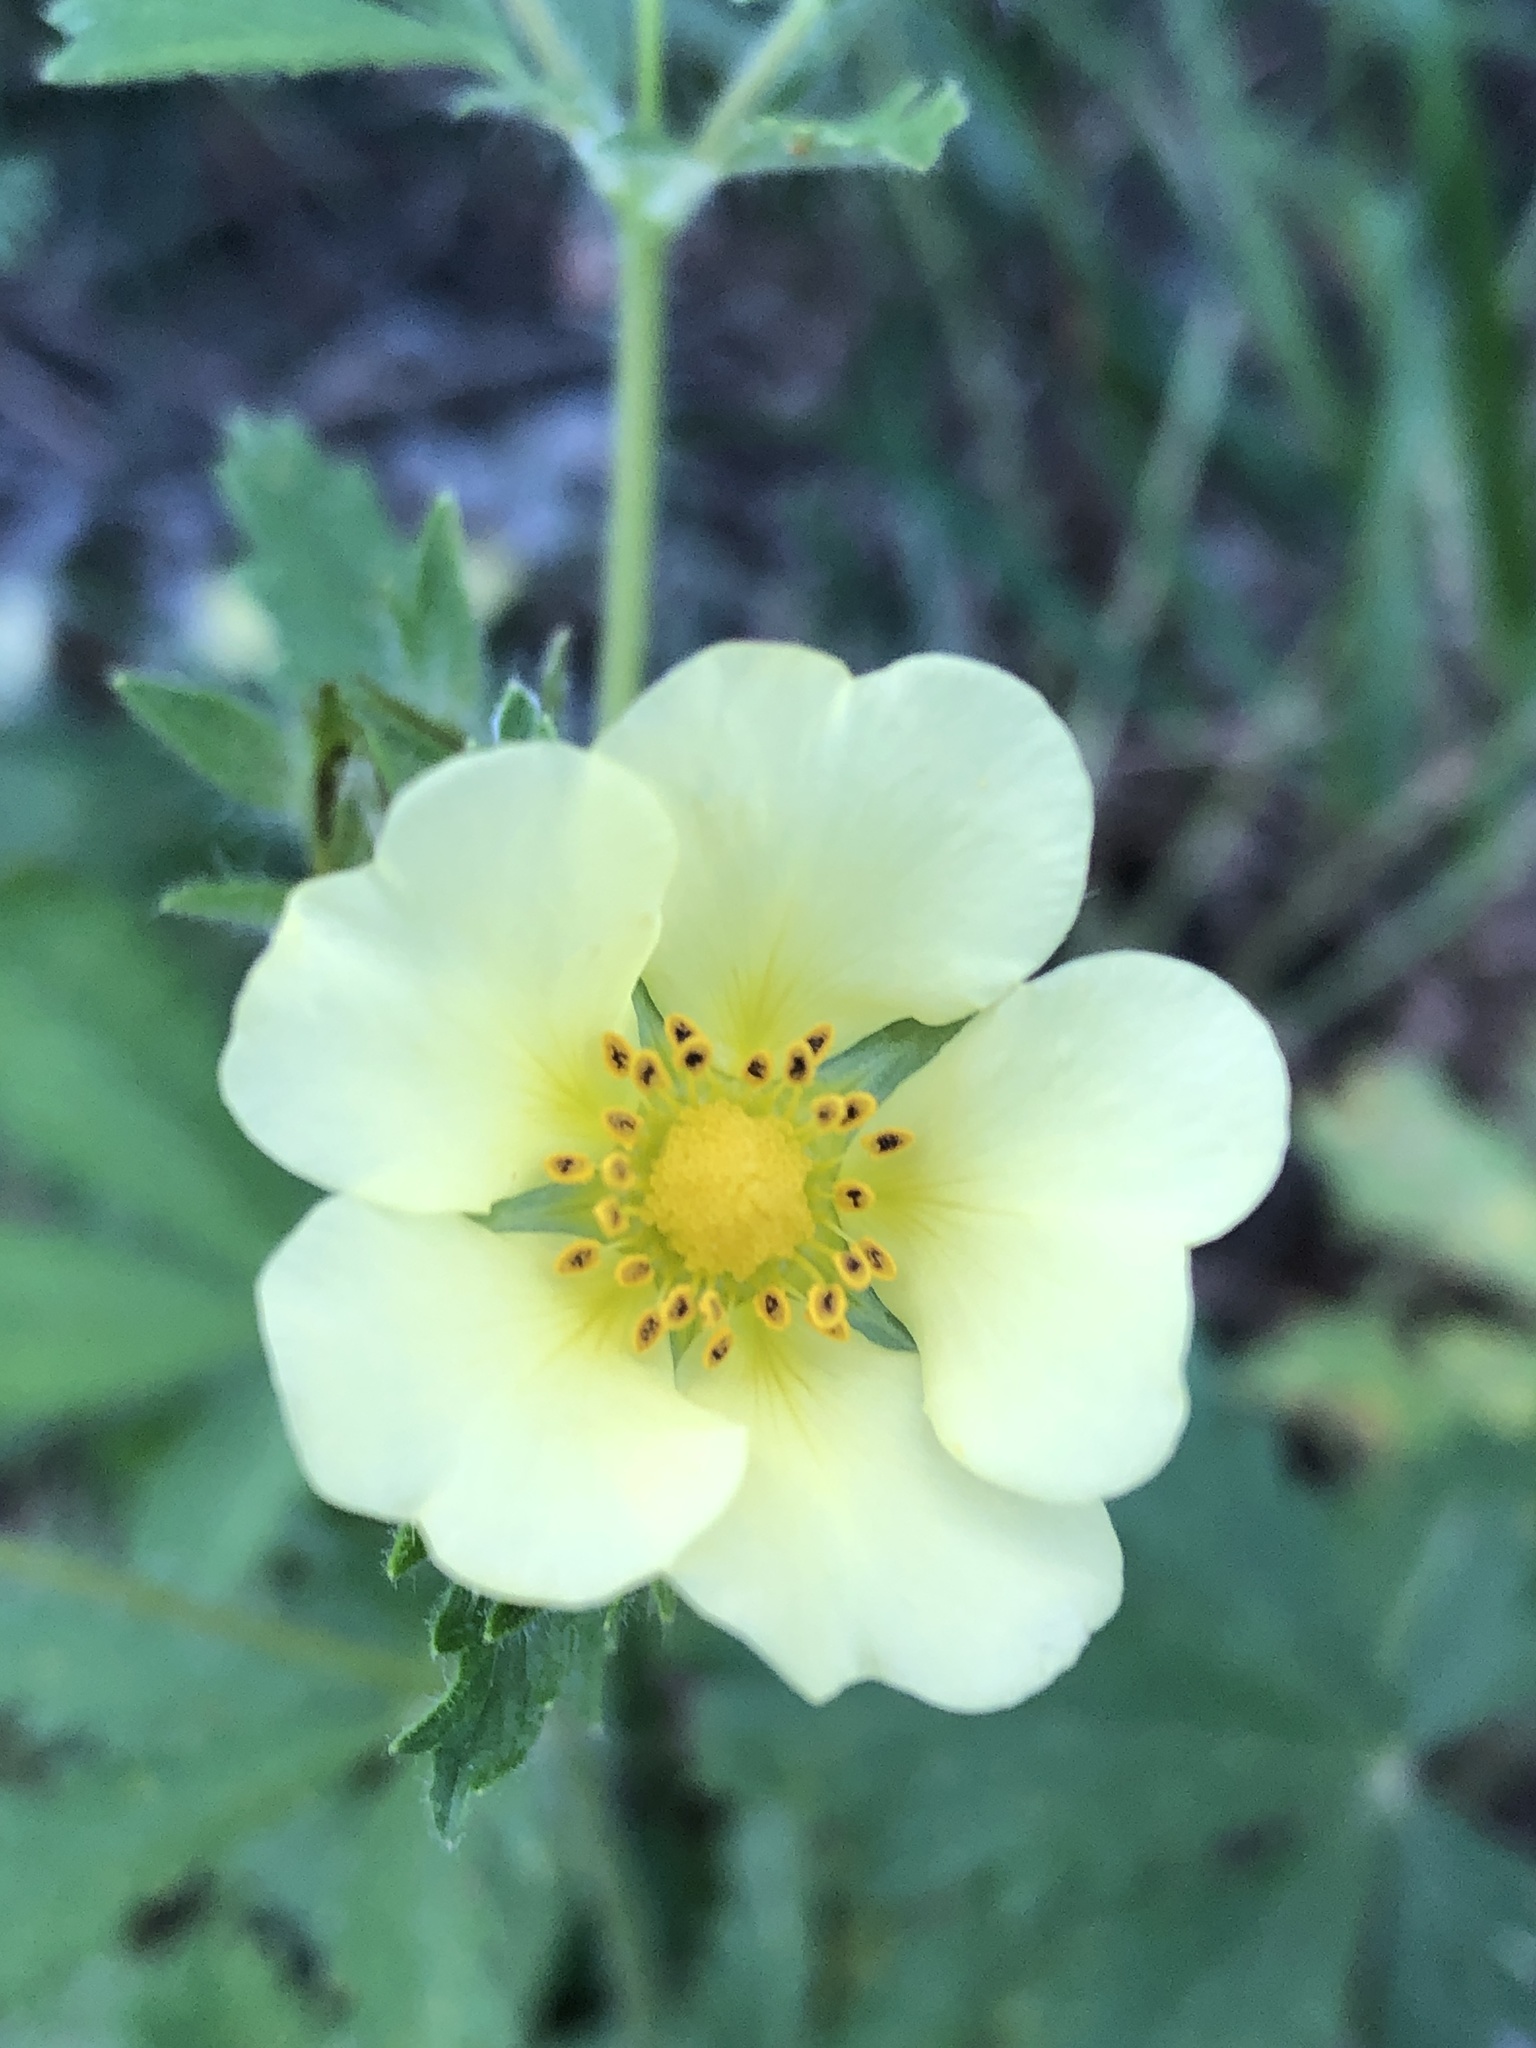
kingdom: Plantae
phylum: Tracheophyta
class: Magnoliopsida
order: Rosales
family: Rosaceae
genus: Potentilla
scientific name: Potentilla recta
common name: Sulphur cinquefoil
